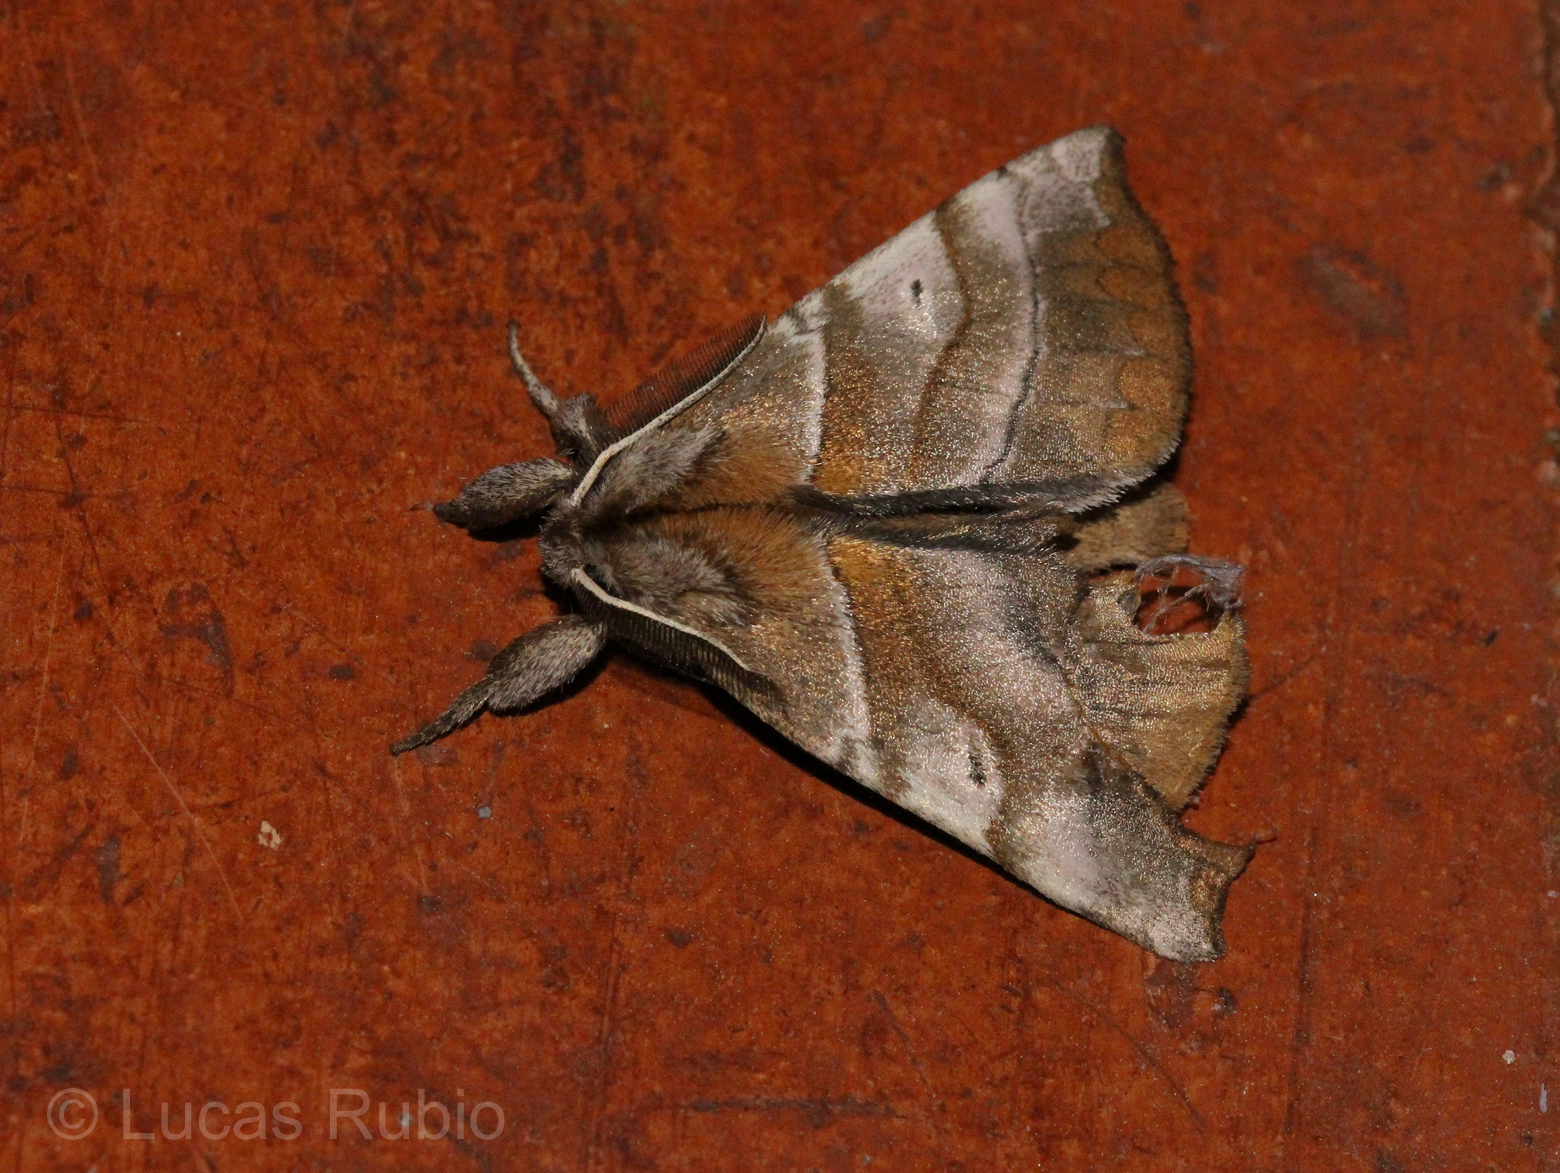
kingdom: Animalia
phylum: Arthropoda
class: Insecta
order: Lepidoptera
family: Apatelodidae
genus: Hygrochroa
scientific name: Hygrochroa
